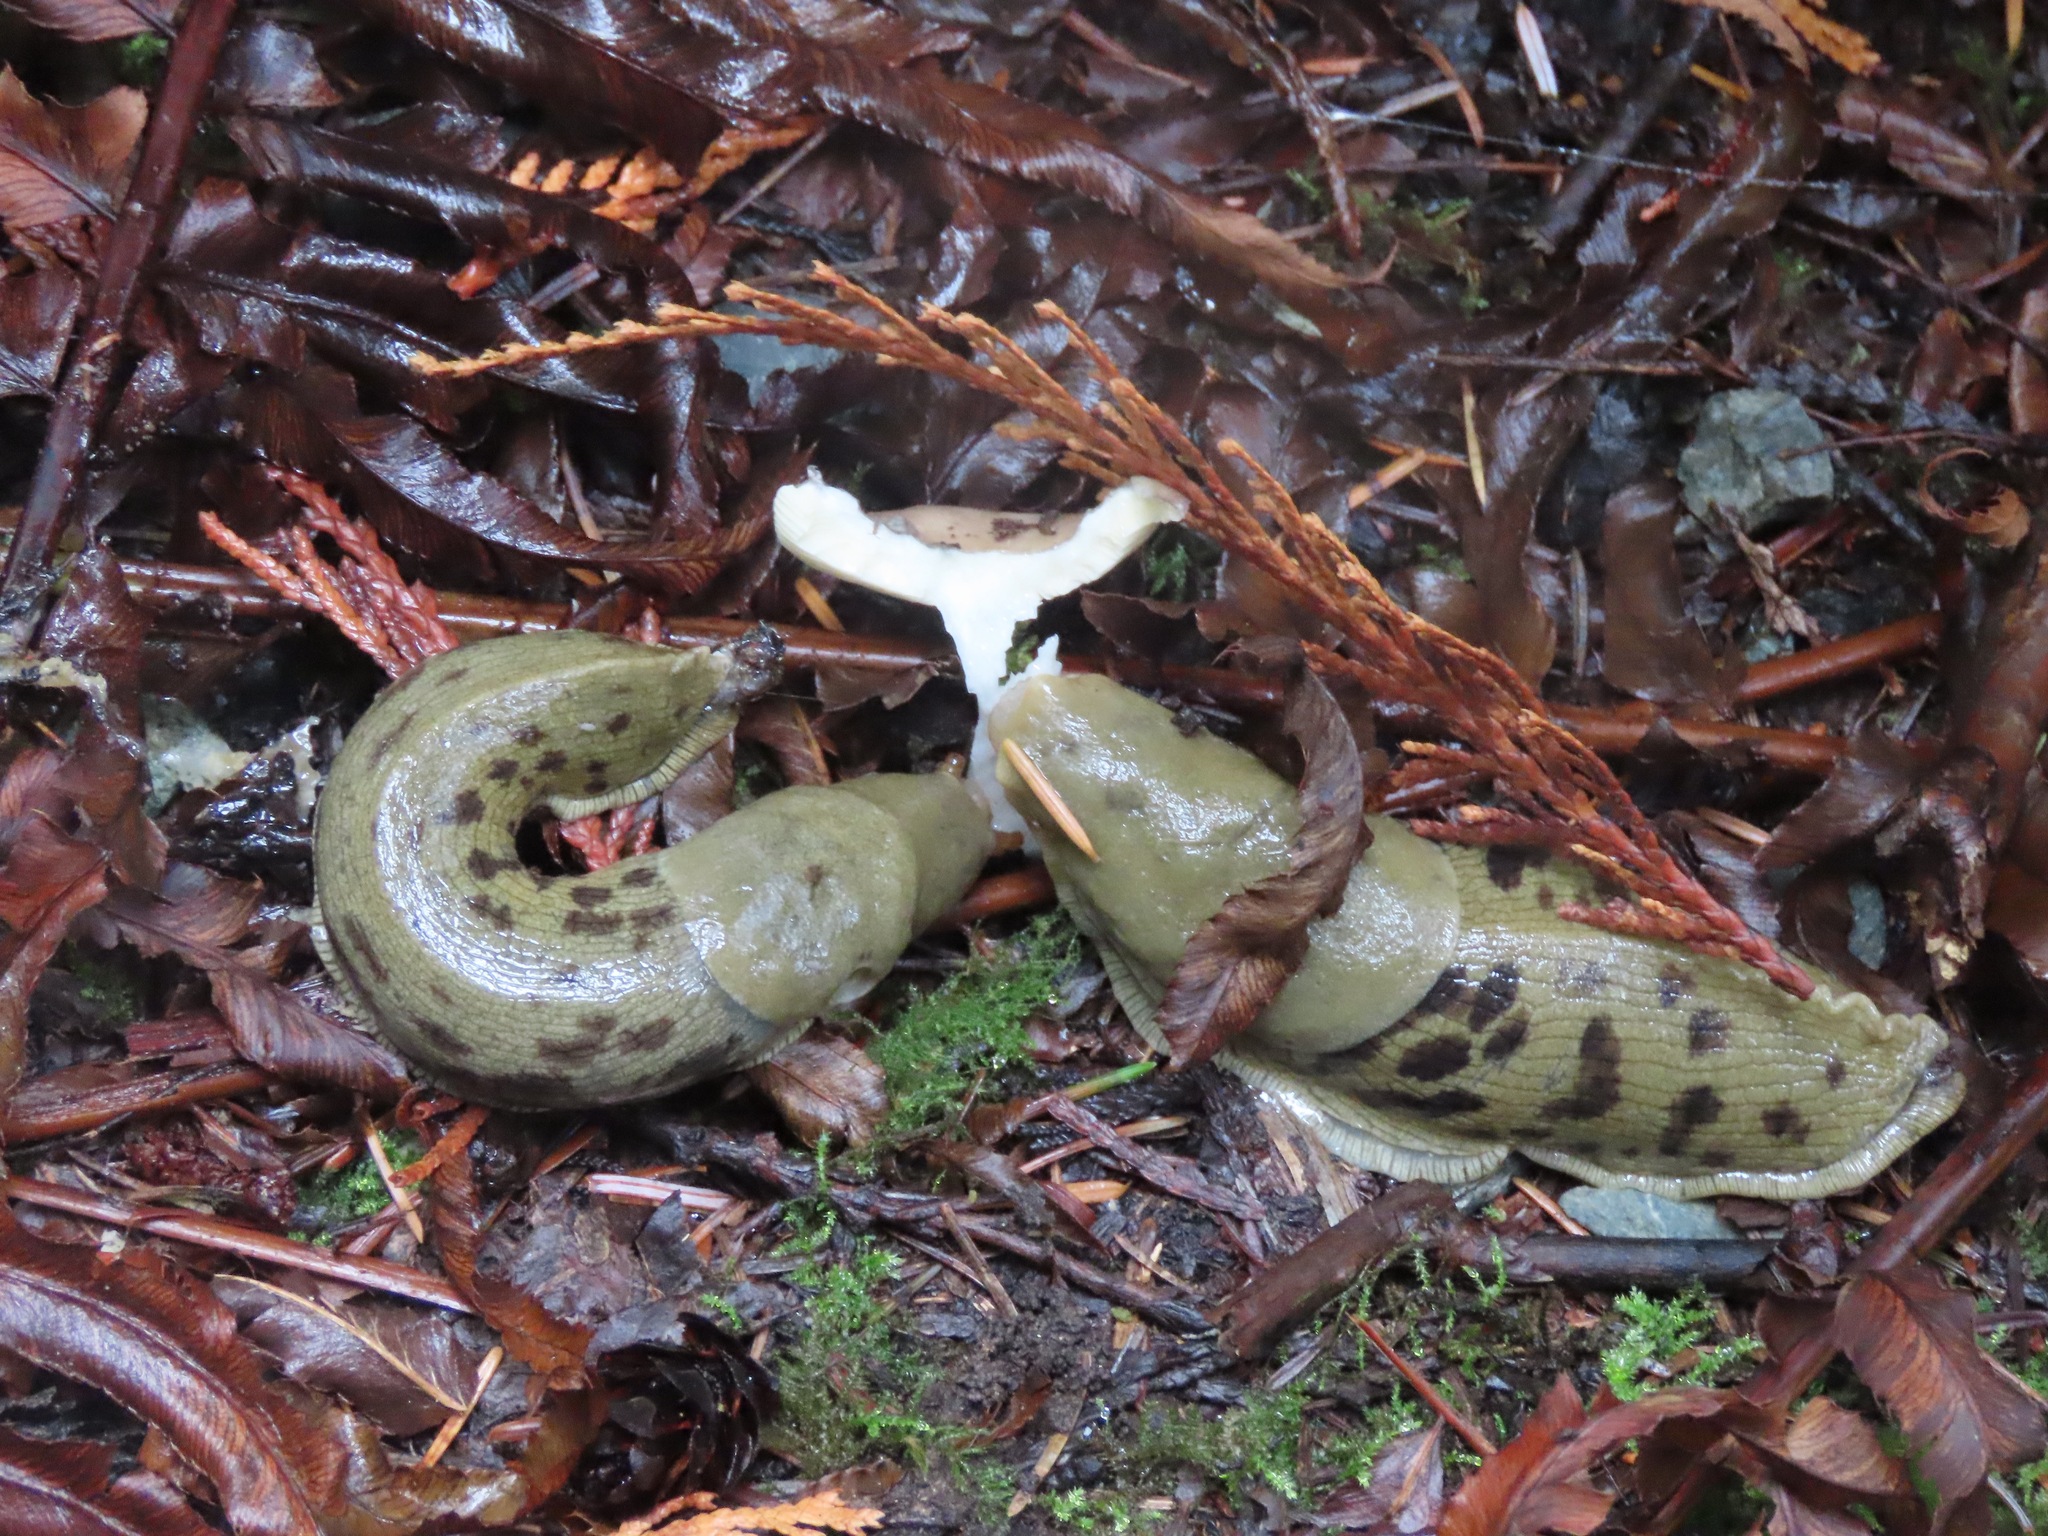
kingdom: Animalia
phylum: Mollusca
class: Gastropoda
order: Stylommatophora
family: Ariolimacidae
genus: Ariolimax
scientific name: Ariolimax columbianus
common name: Pacific banana slug
